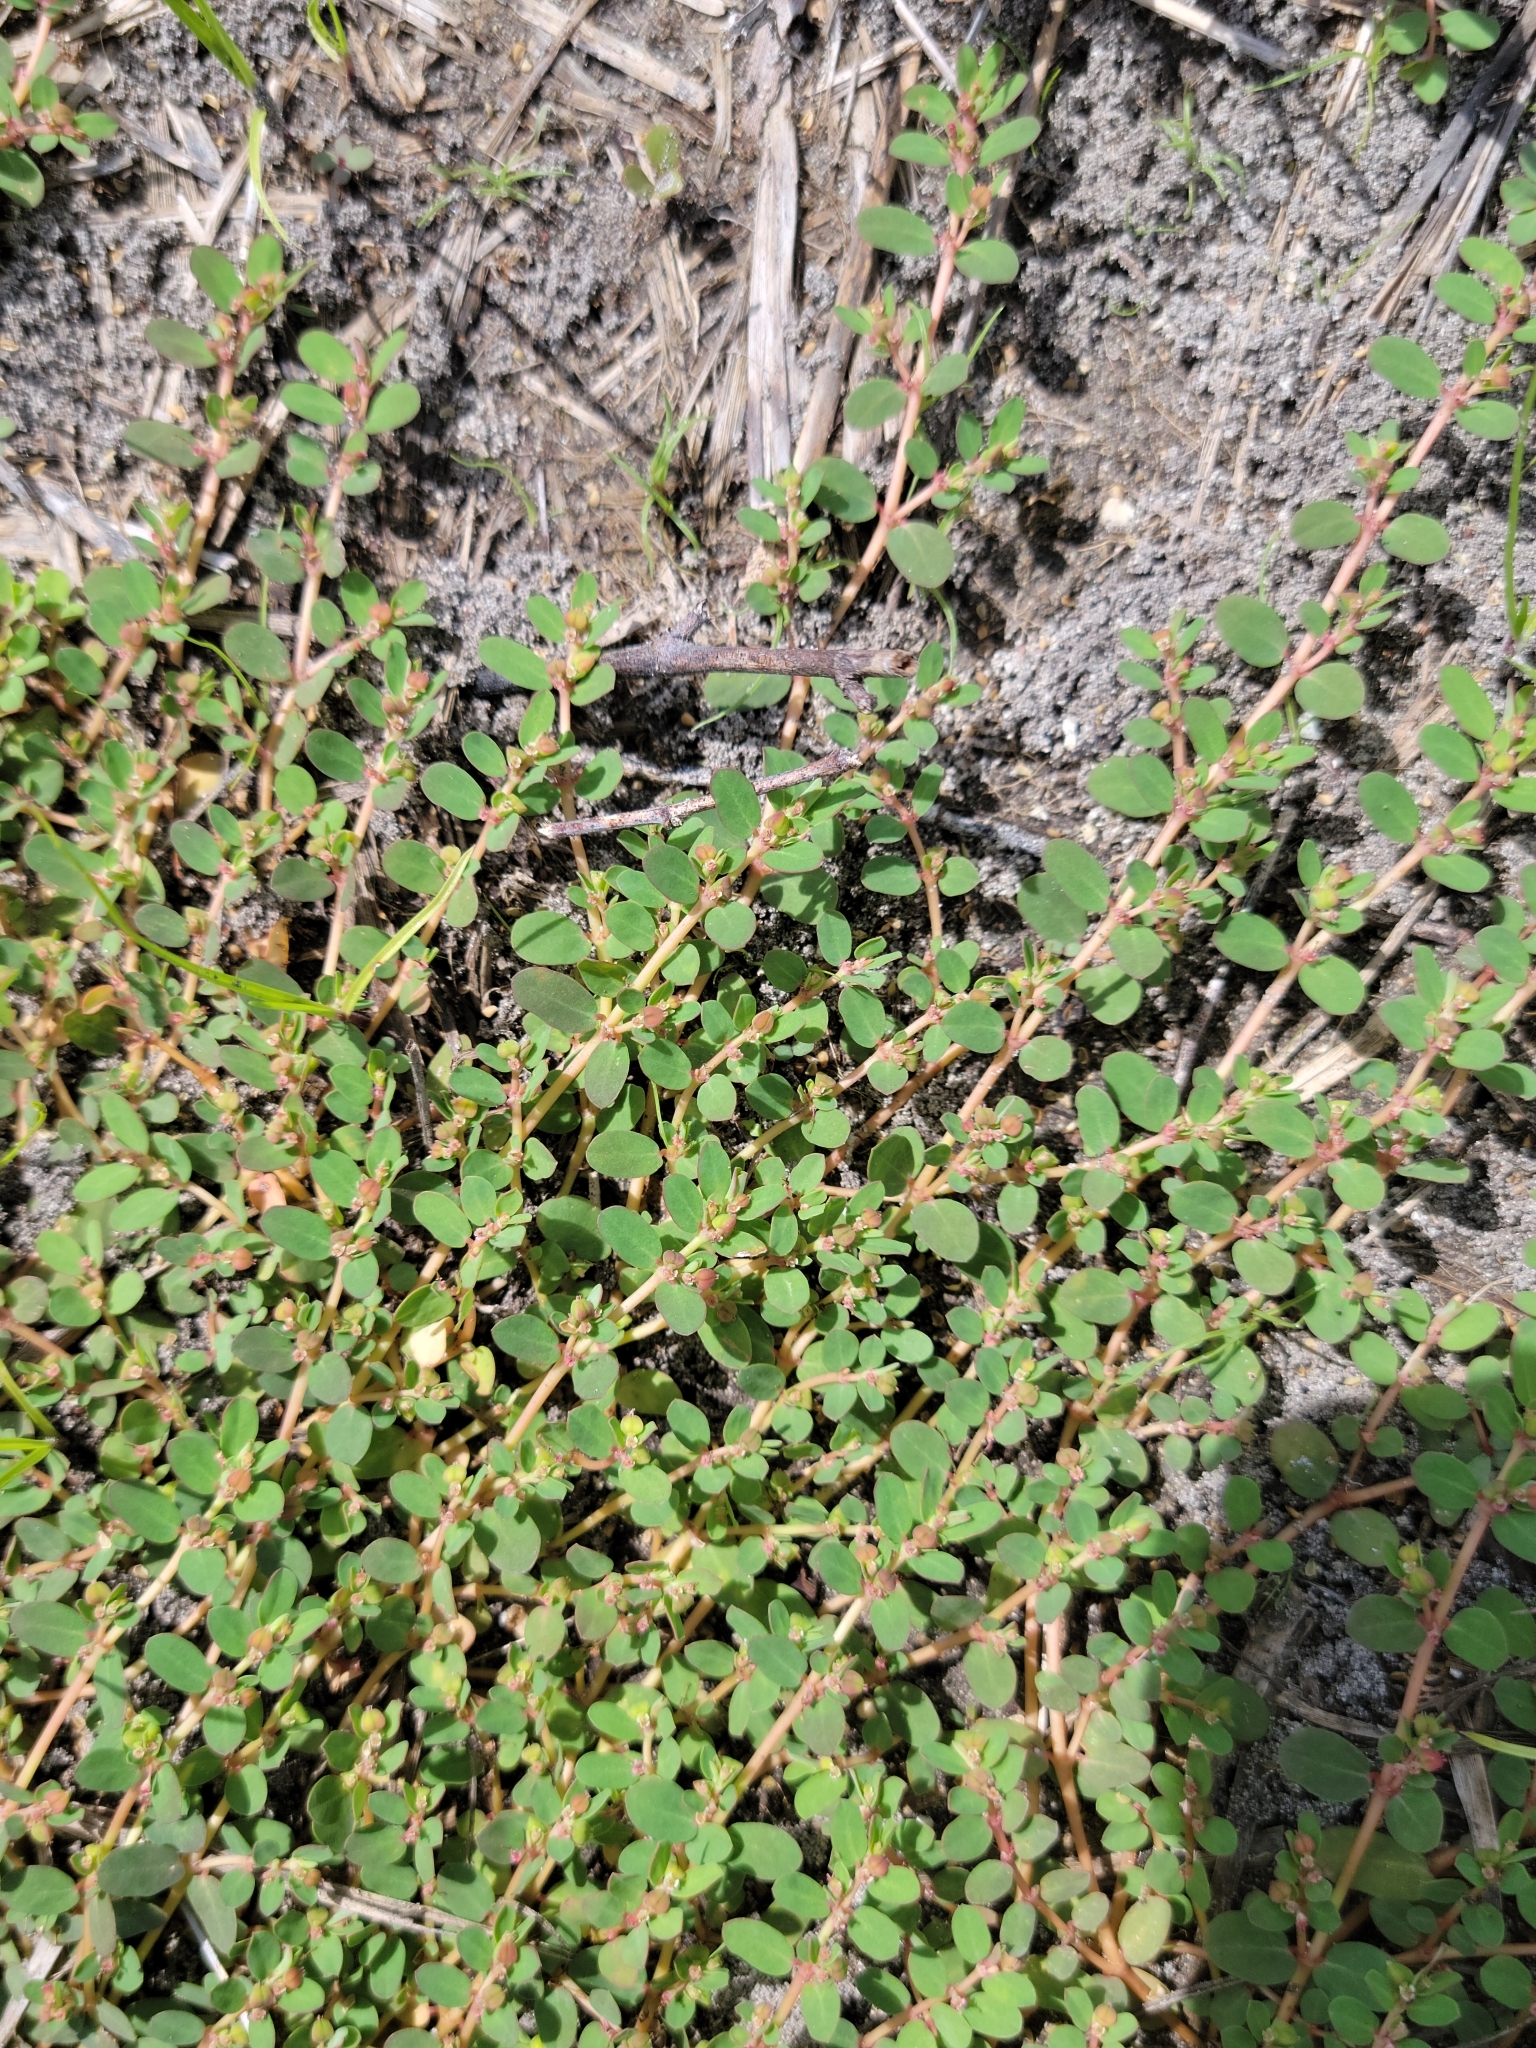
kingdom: Plantae
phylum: Tracheophyta
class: Magnoliopsida
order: Malpighiales
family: Euphorbiaceae
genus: Euphorbia
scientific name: Euphorbia blodgettii
